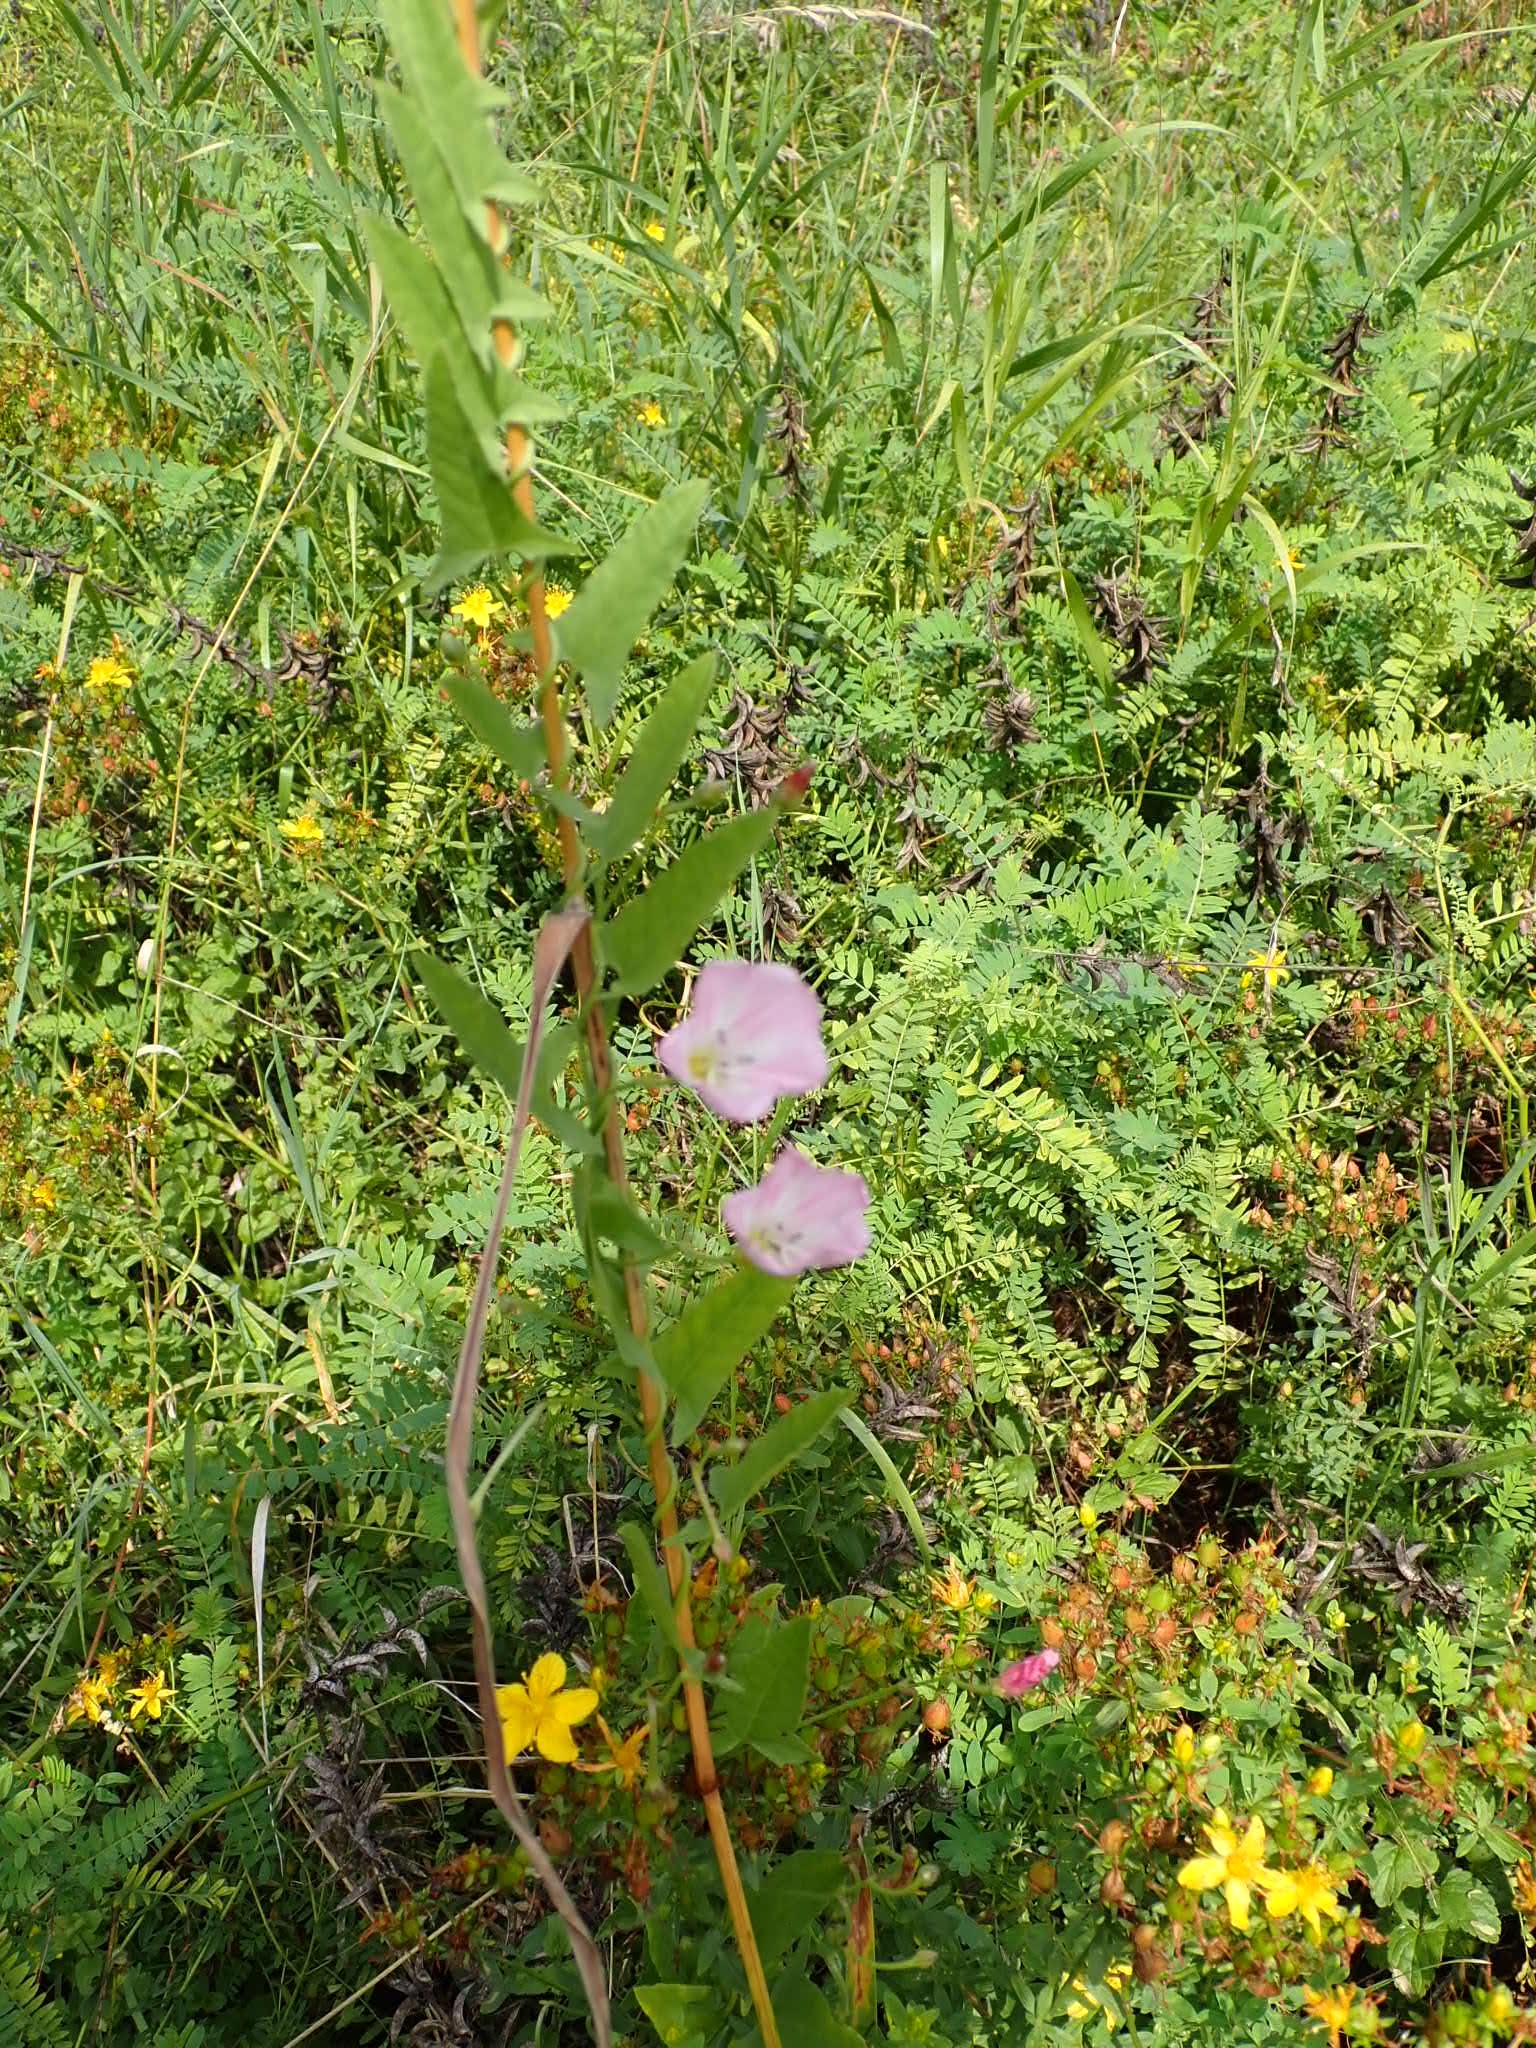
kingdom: Plantae
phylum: Tracheophyta
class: Magnoliopsida
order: Solanales
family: Convolvulaceae
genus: Convolvulus
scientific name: Convolvulus arvensis
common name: Field bindweed
